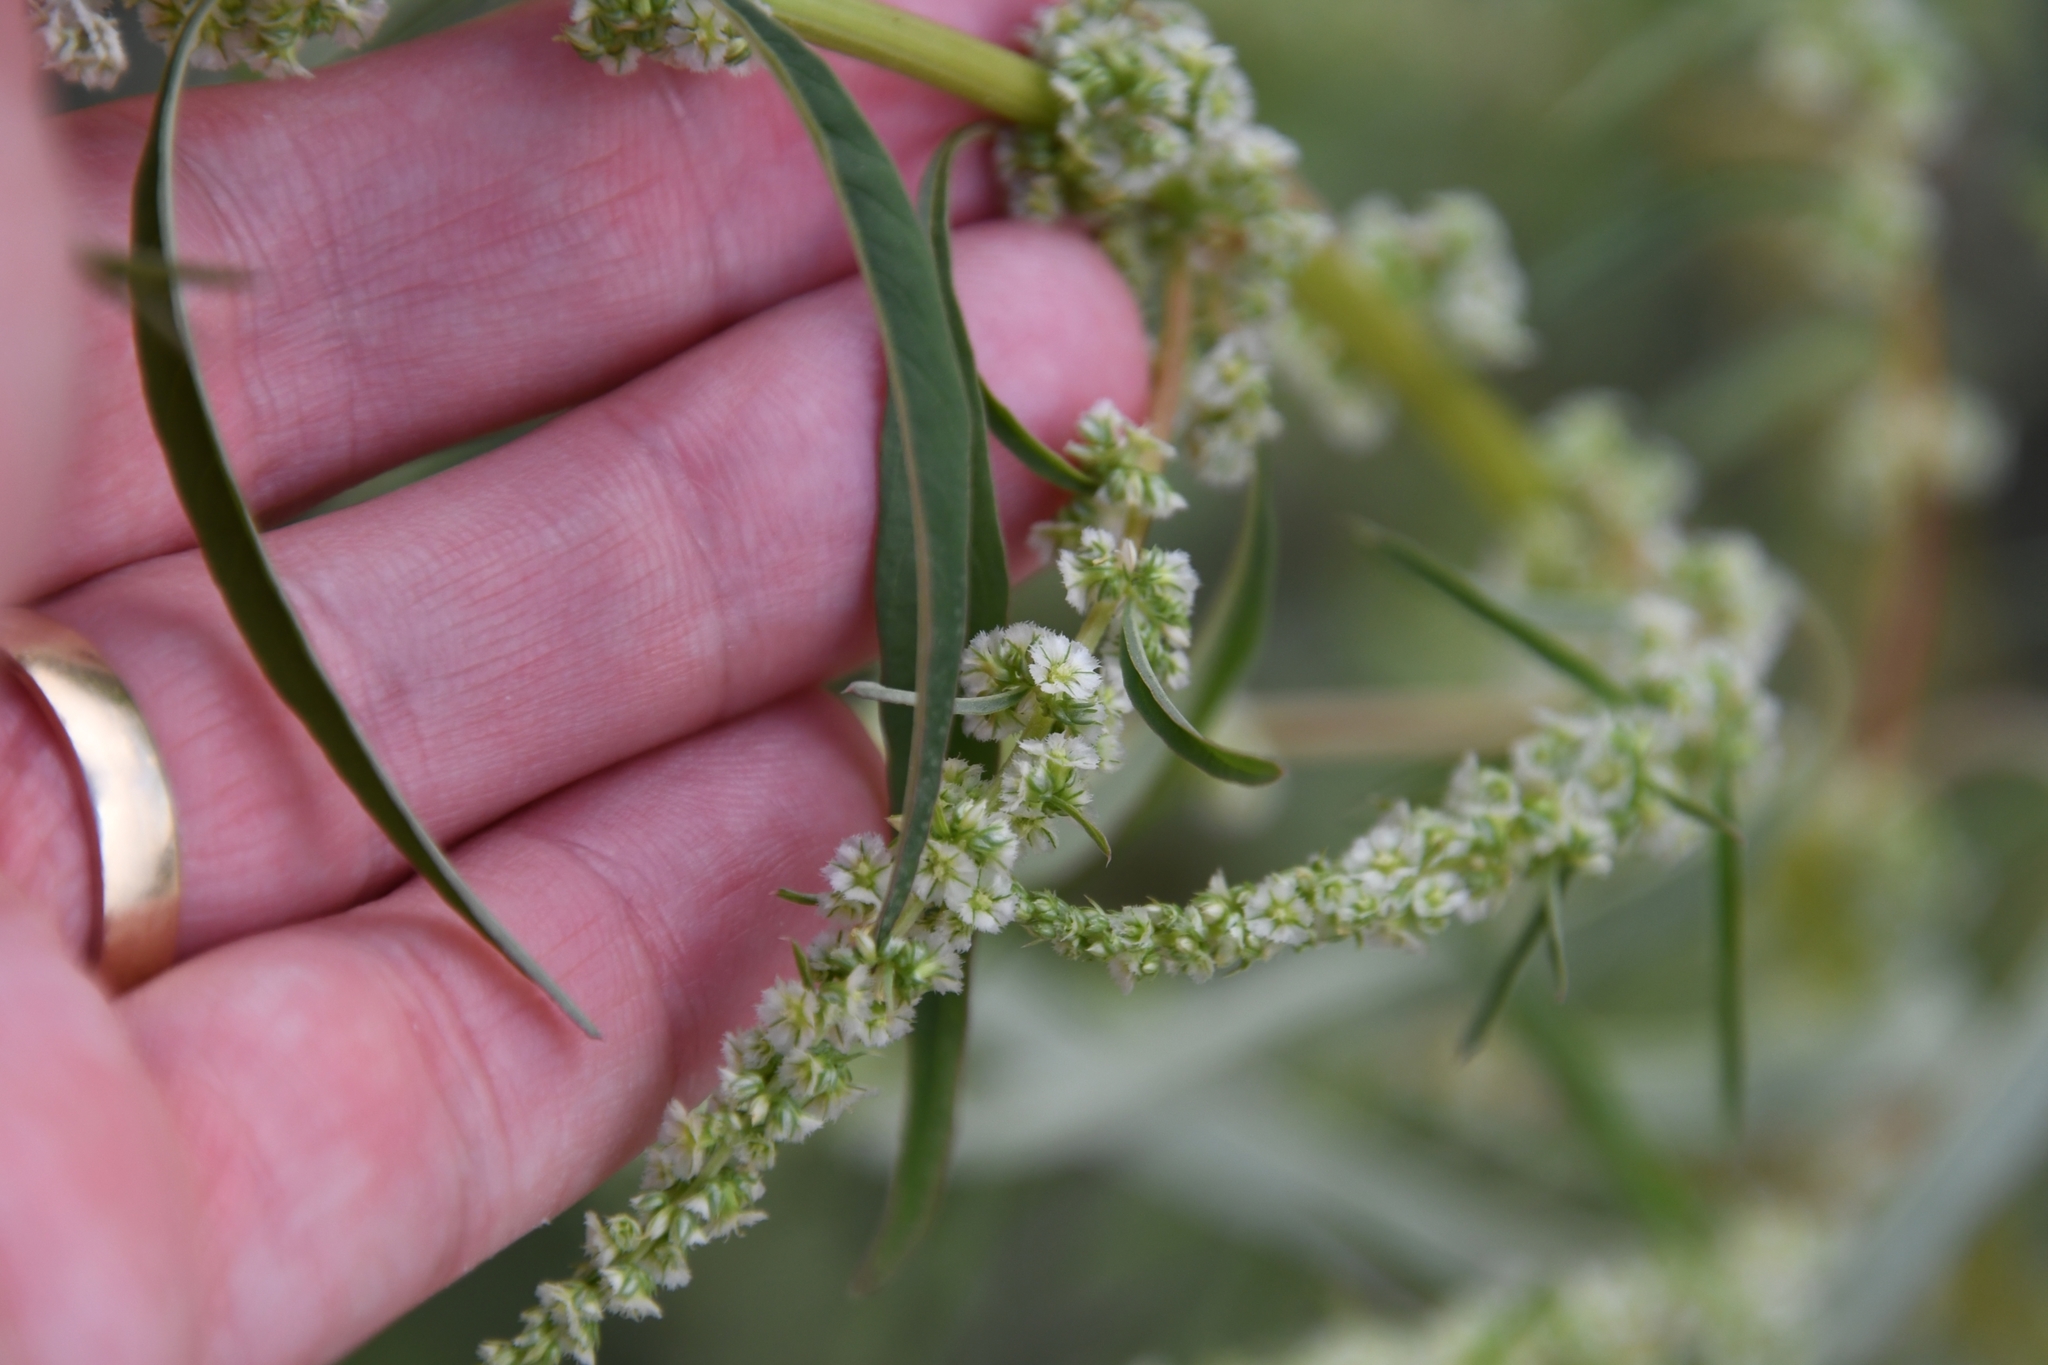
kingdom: Plantae
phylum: Tracheophyta
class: Magnoliopsida
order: Caryophyllales
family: Amaranthaceae
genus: Amaranthus
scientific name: Amaranthus fimbriatus
